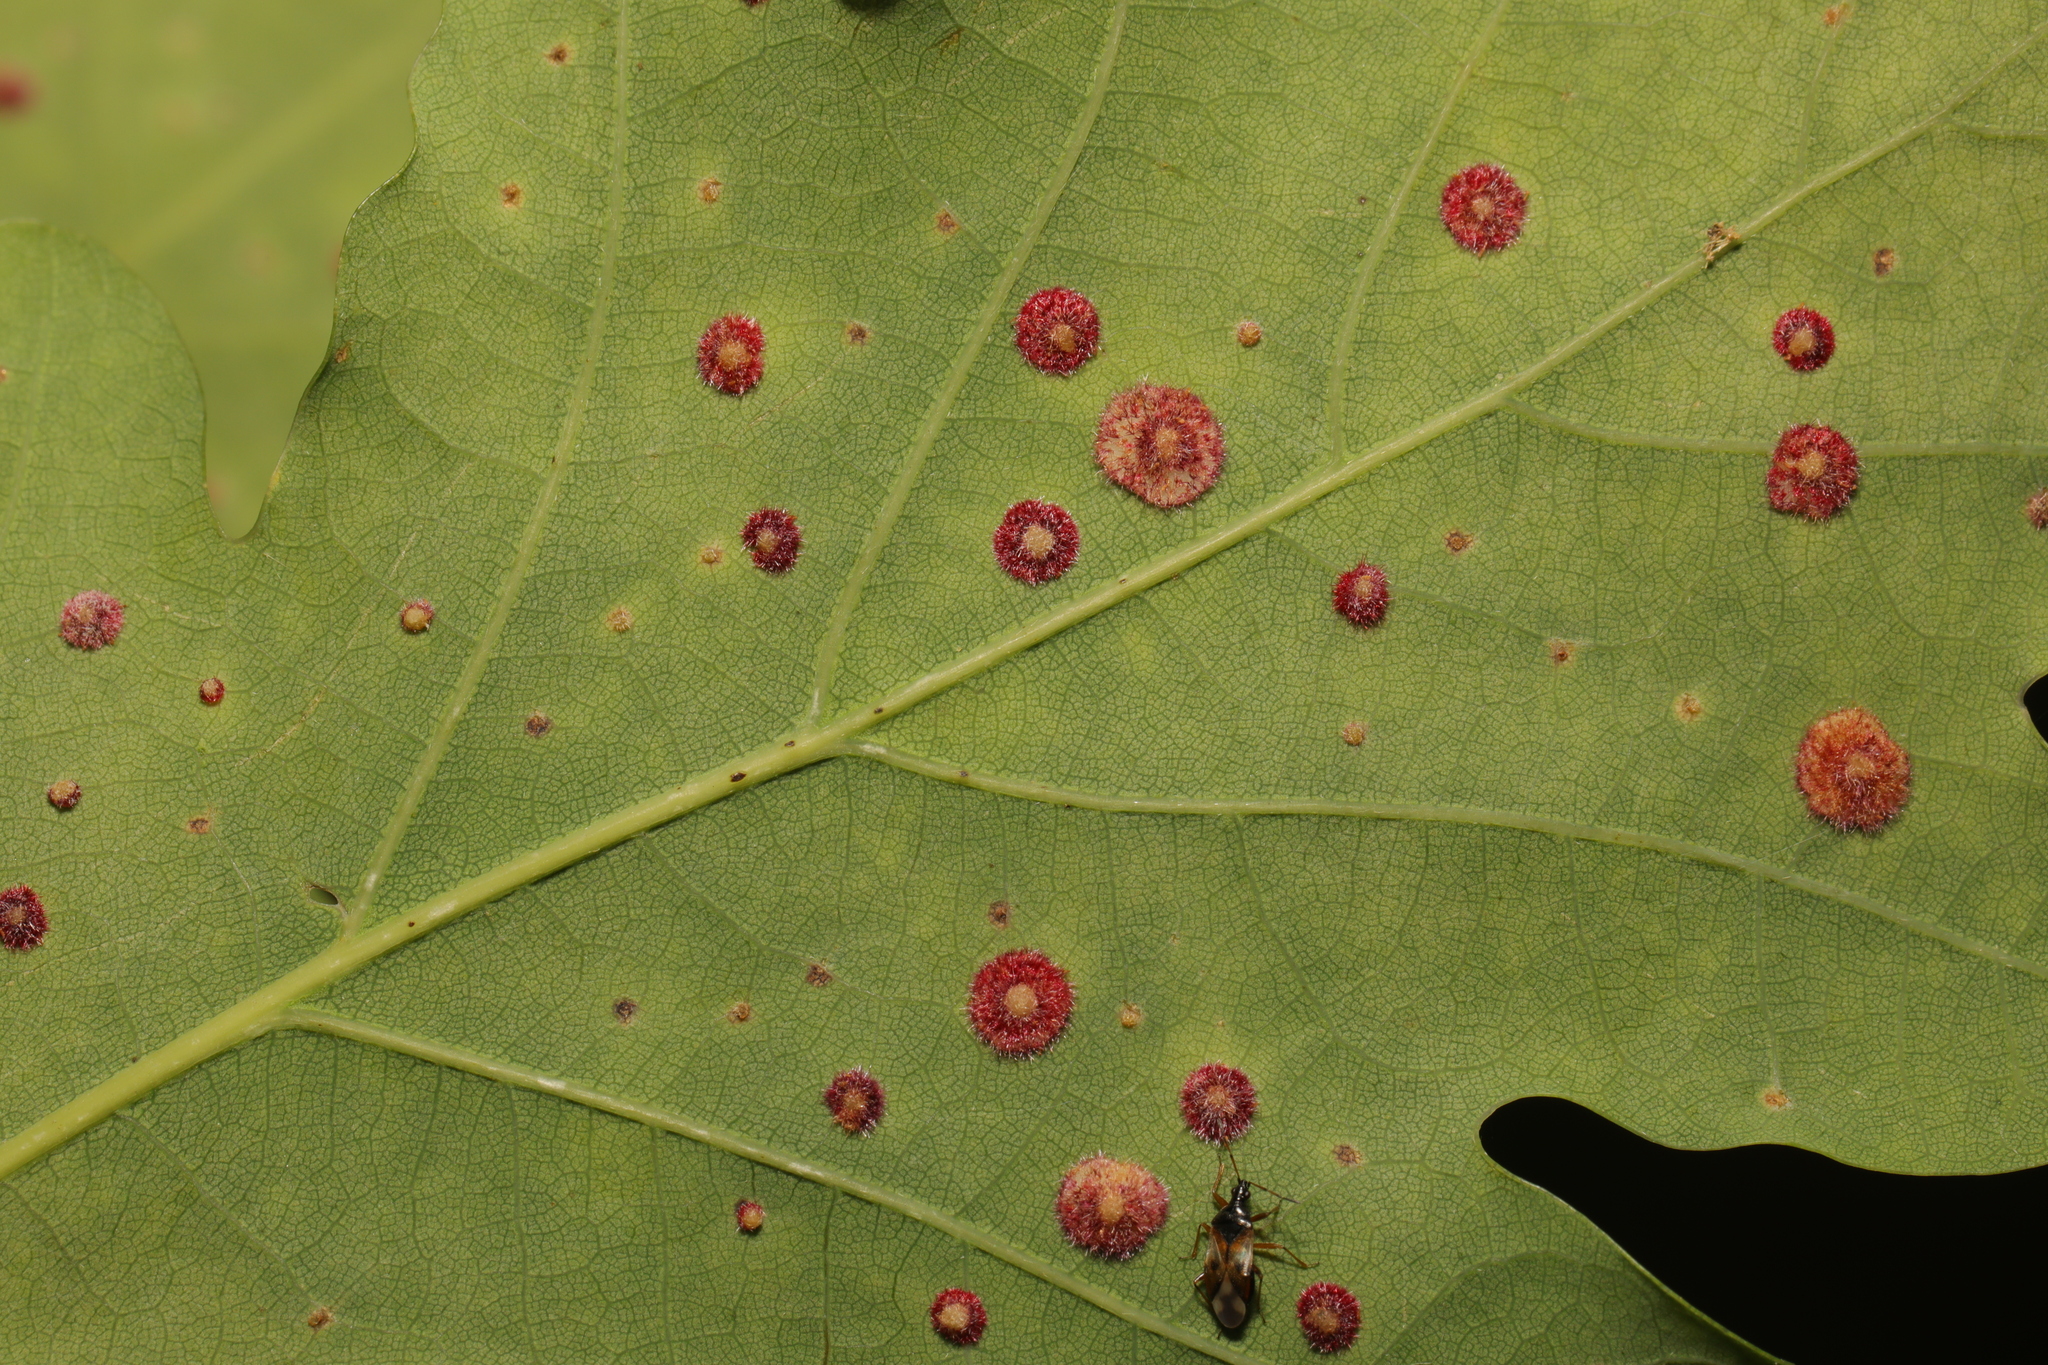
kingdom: Animalia
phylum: Arthropoda
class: Insecta
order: Hymenoptera
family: Cynipidae
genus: Neuroterus
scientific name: Neuroterus quercusbaccarum
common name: Common spangle gall
